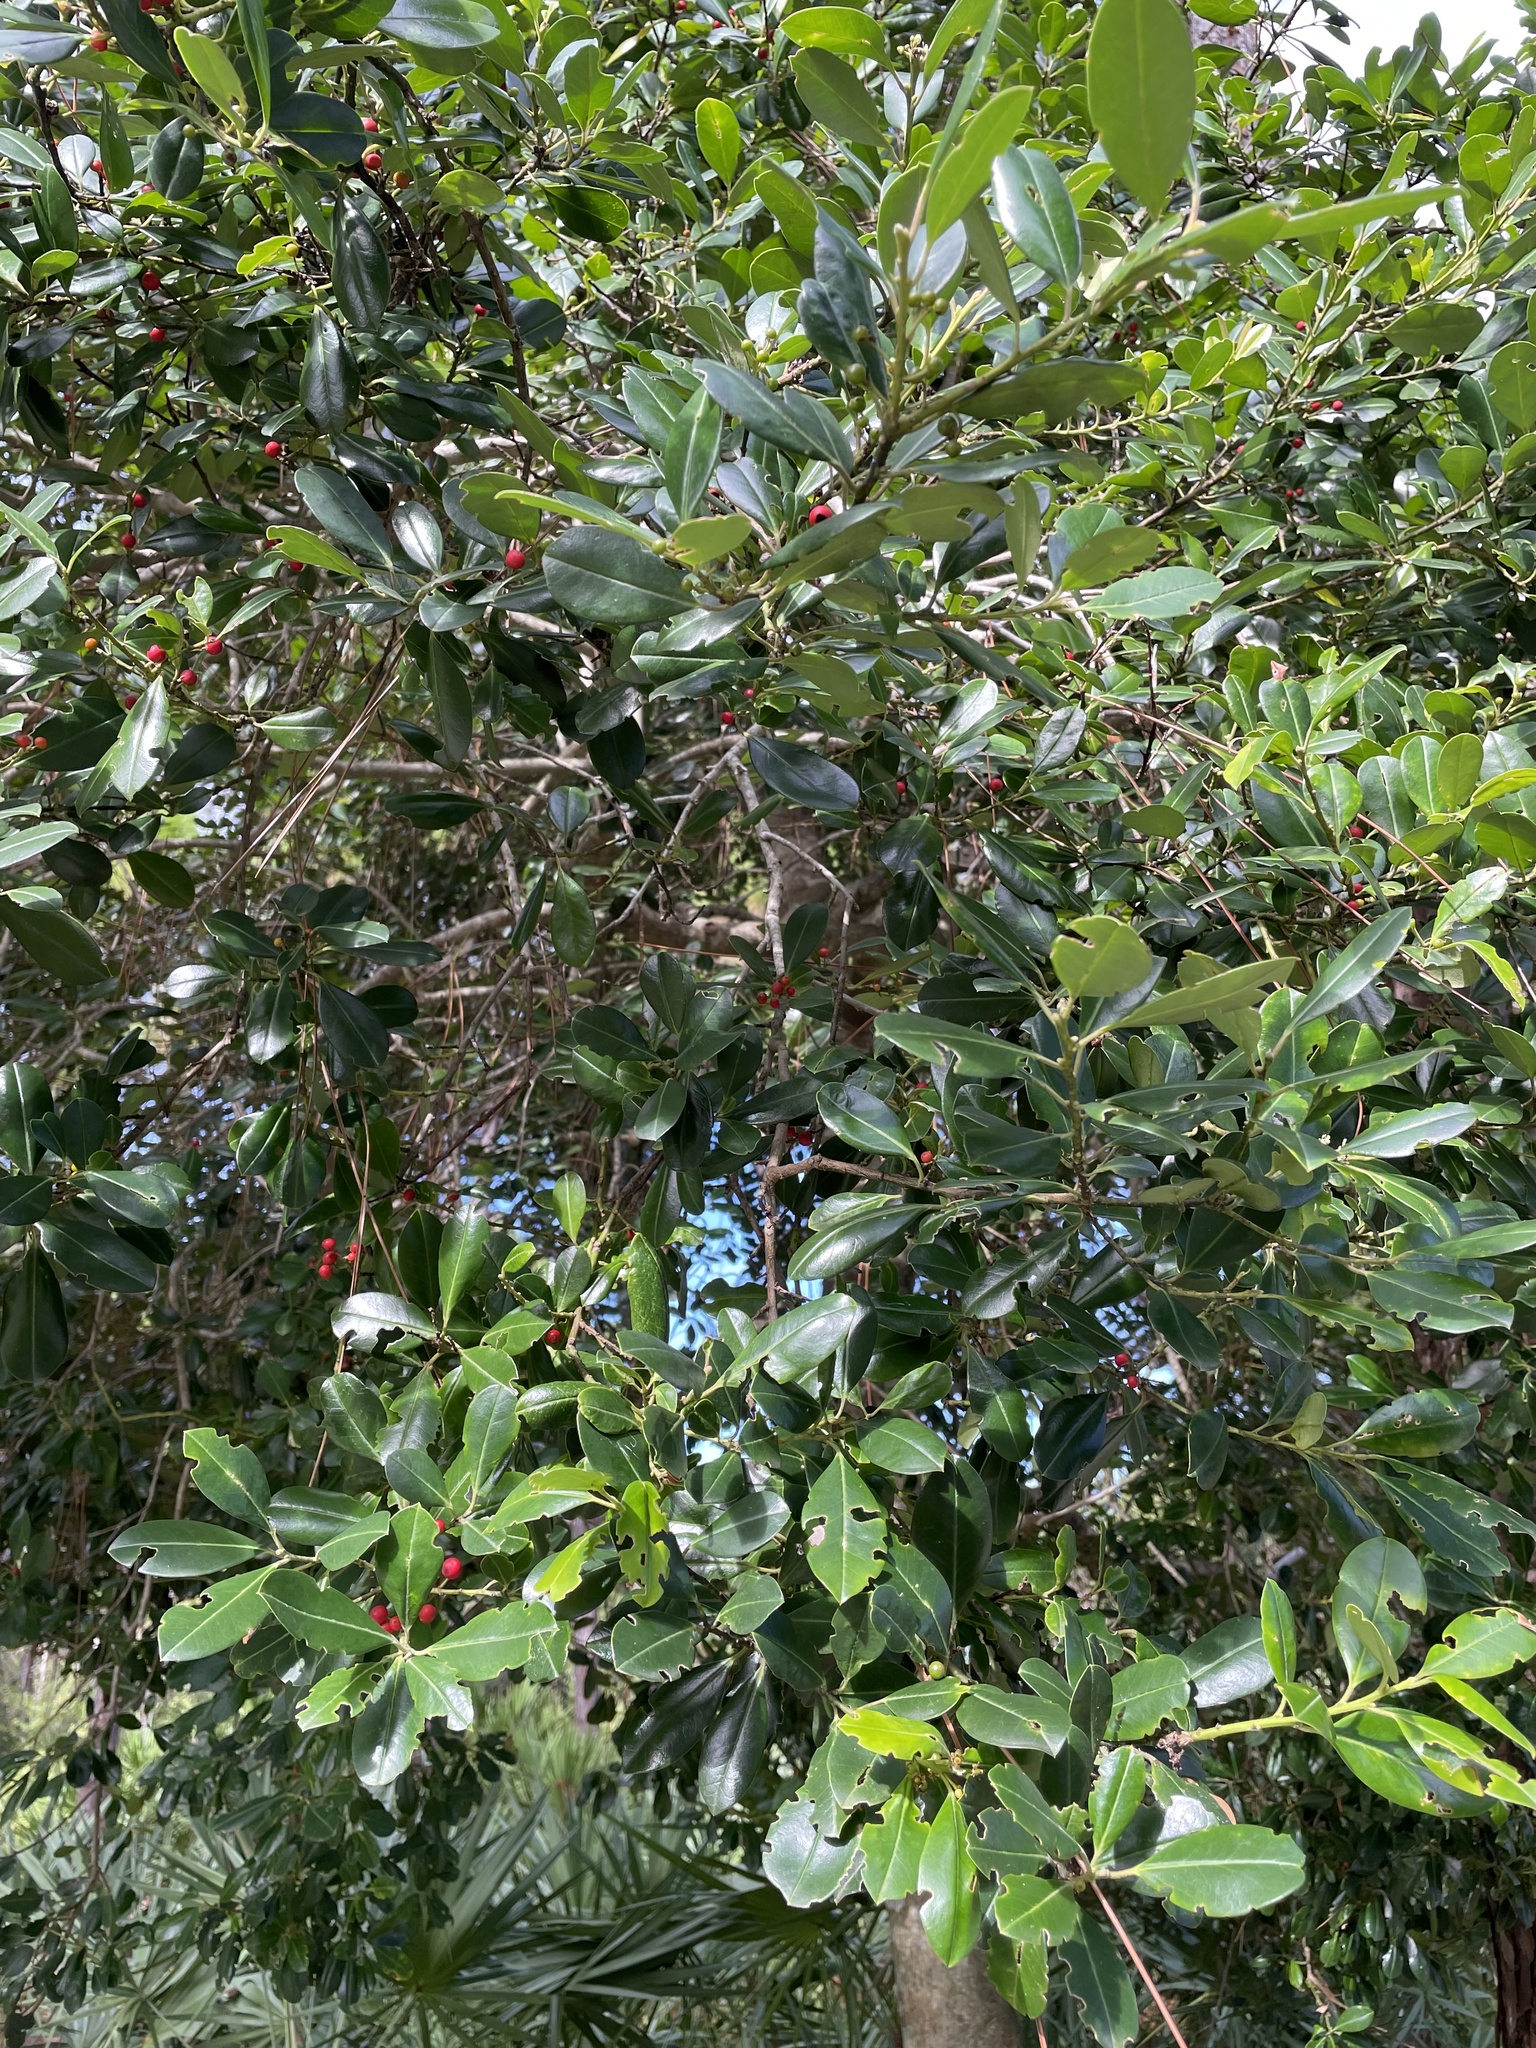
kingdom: Plantae
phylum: Tracheophyta
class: Magnoliopsida
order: Aquifoliales
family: Aquifoliaceae
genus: Ilex
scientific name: Ilex cassine
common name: Dahoon
